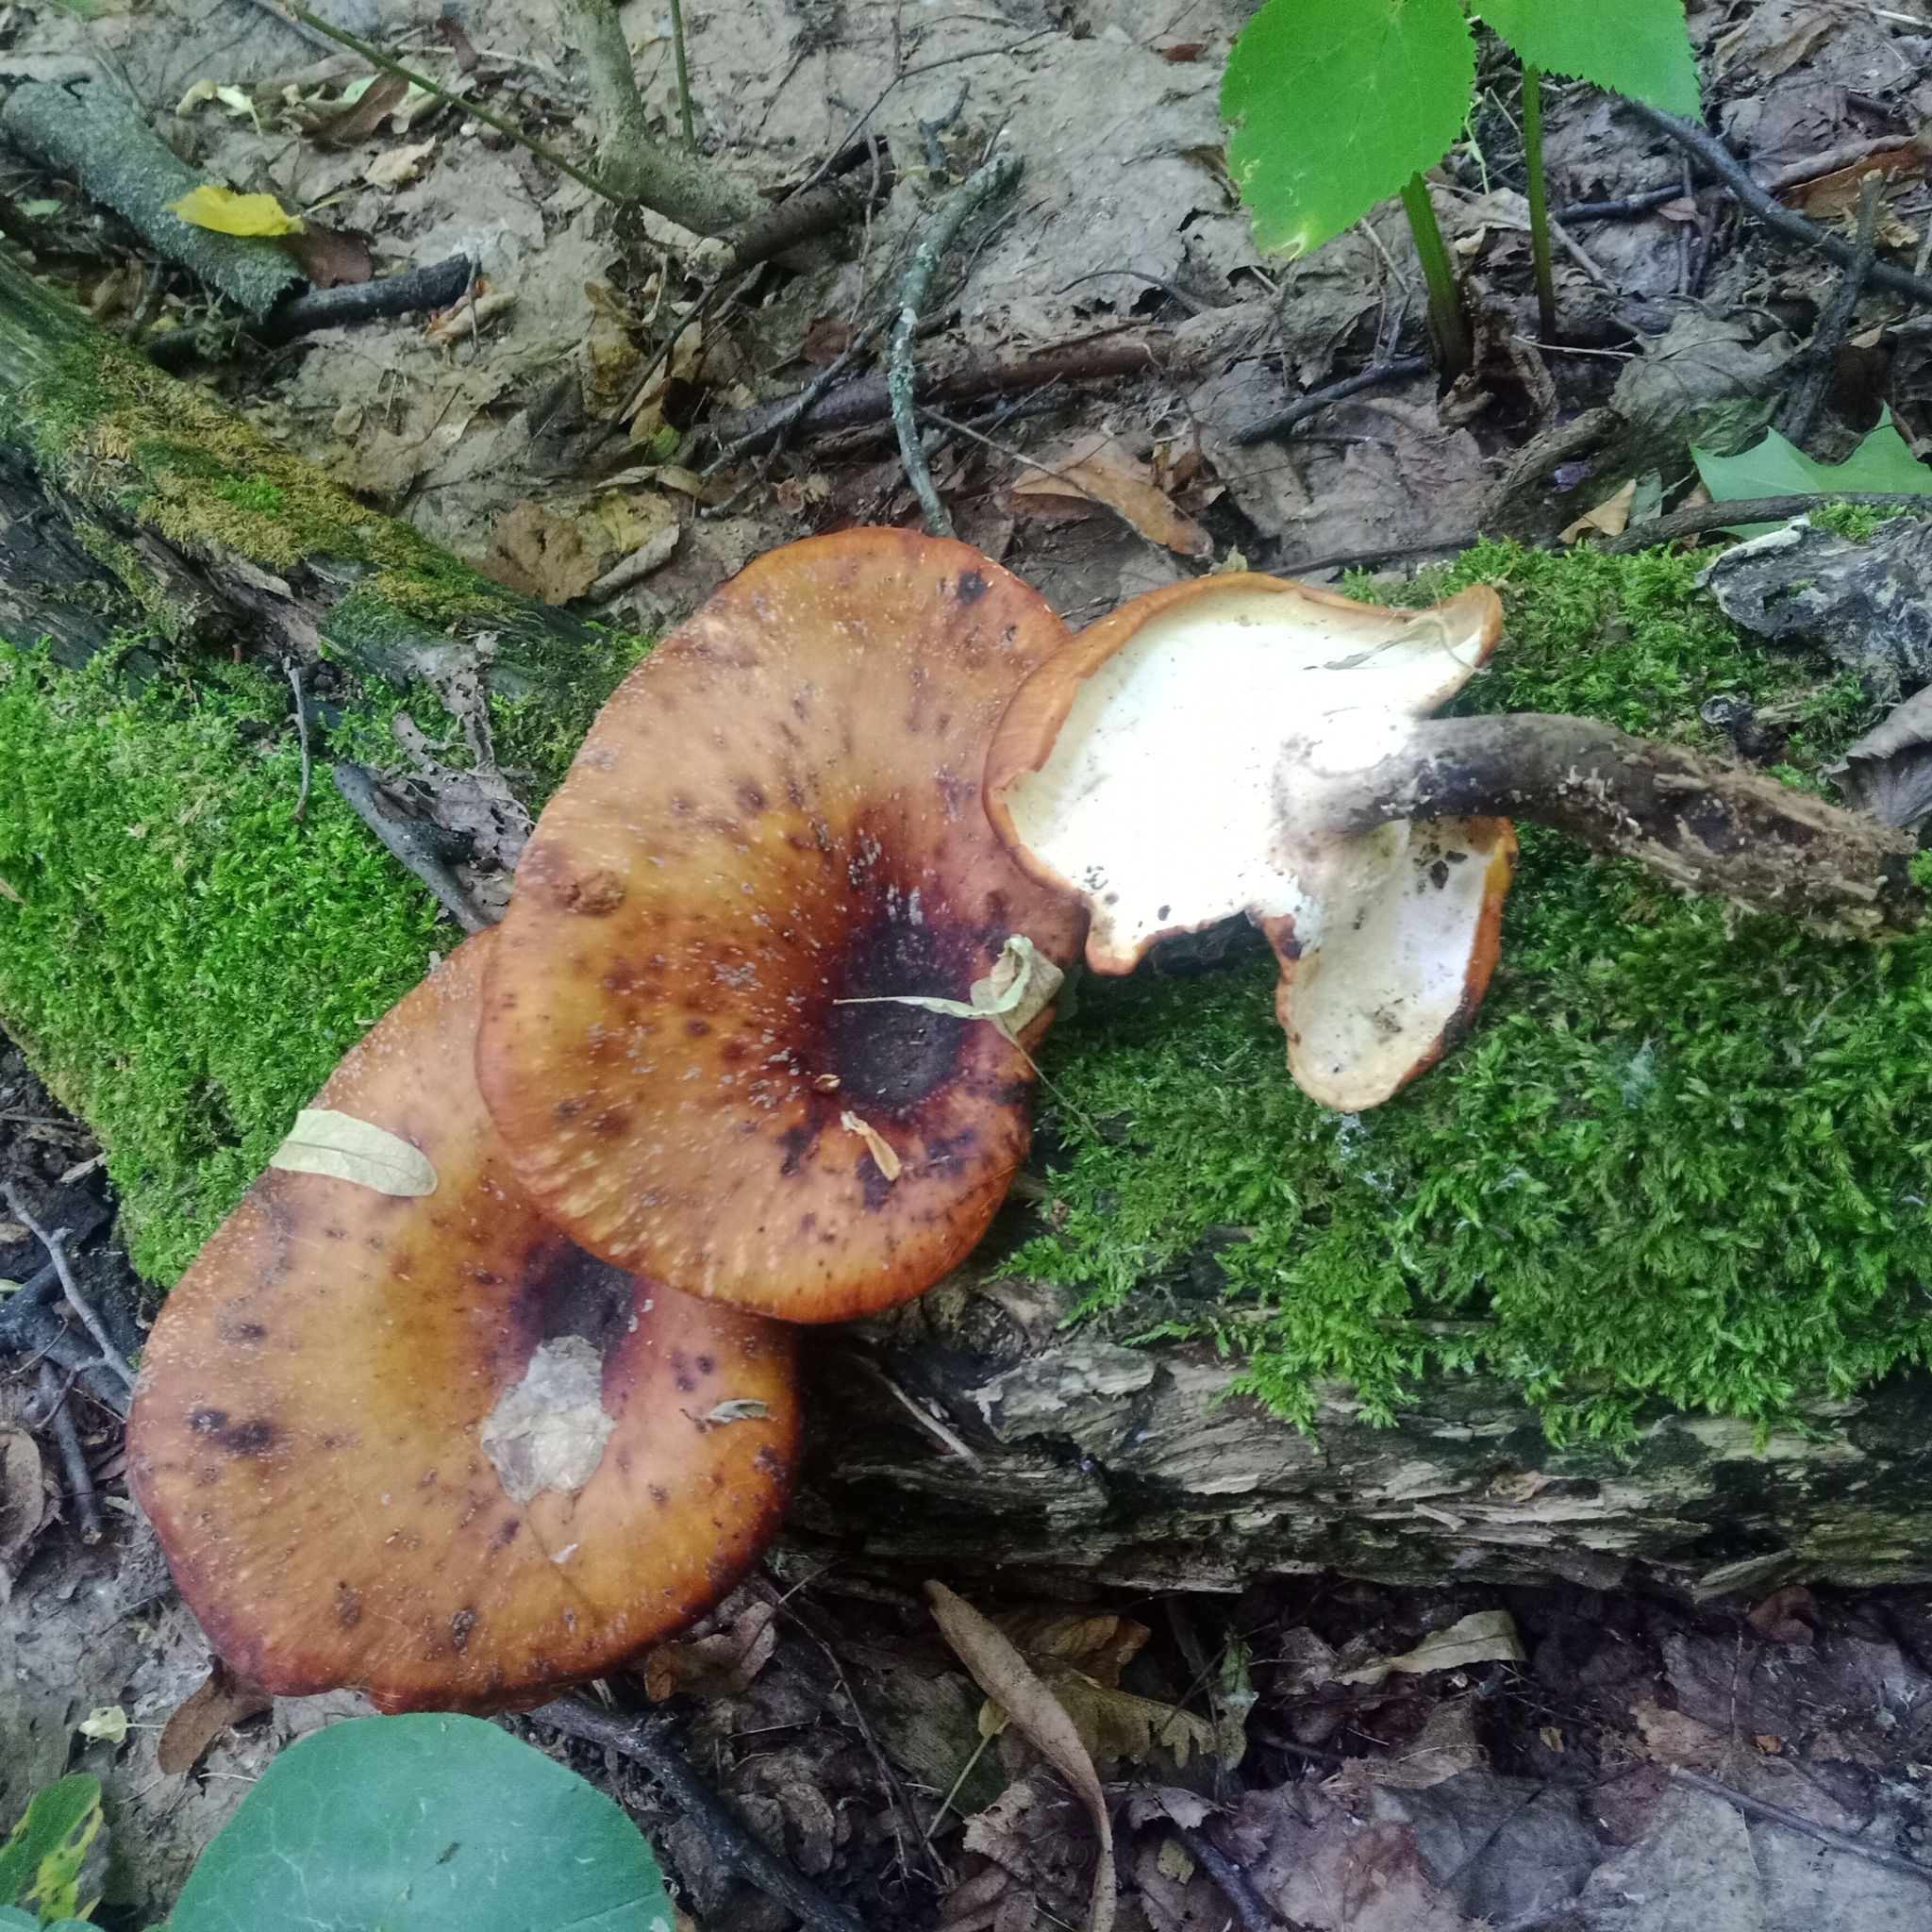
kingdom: Fungi
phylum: Basidiomycota
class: Agaricomycetes
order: Polyporales
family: Polyporaceae
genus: Picipes
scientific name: Picipes badius
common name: Bay polypore
